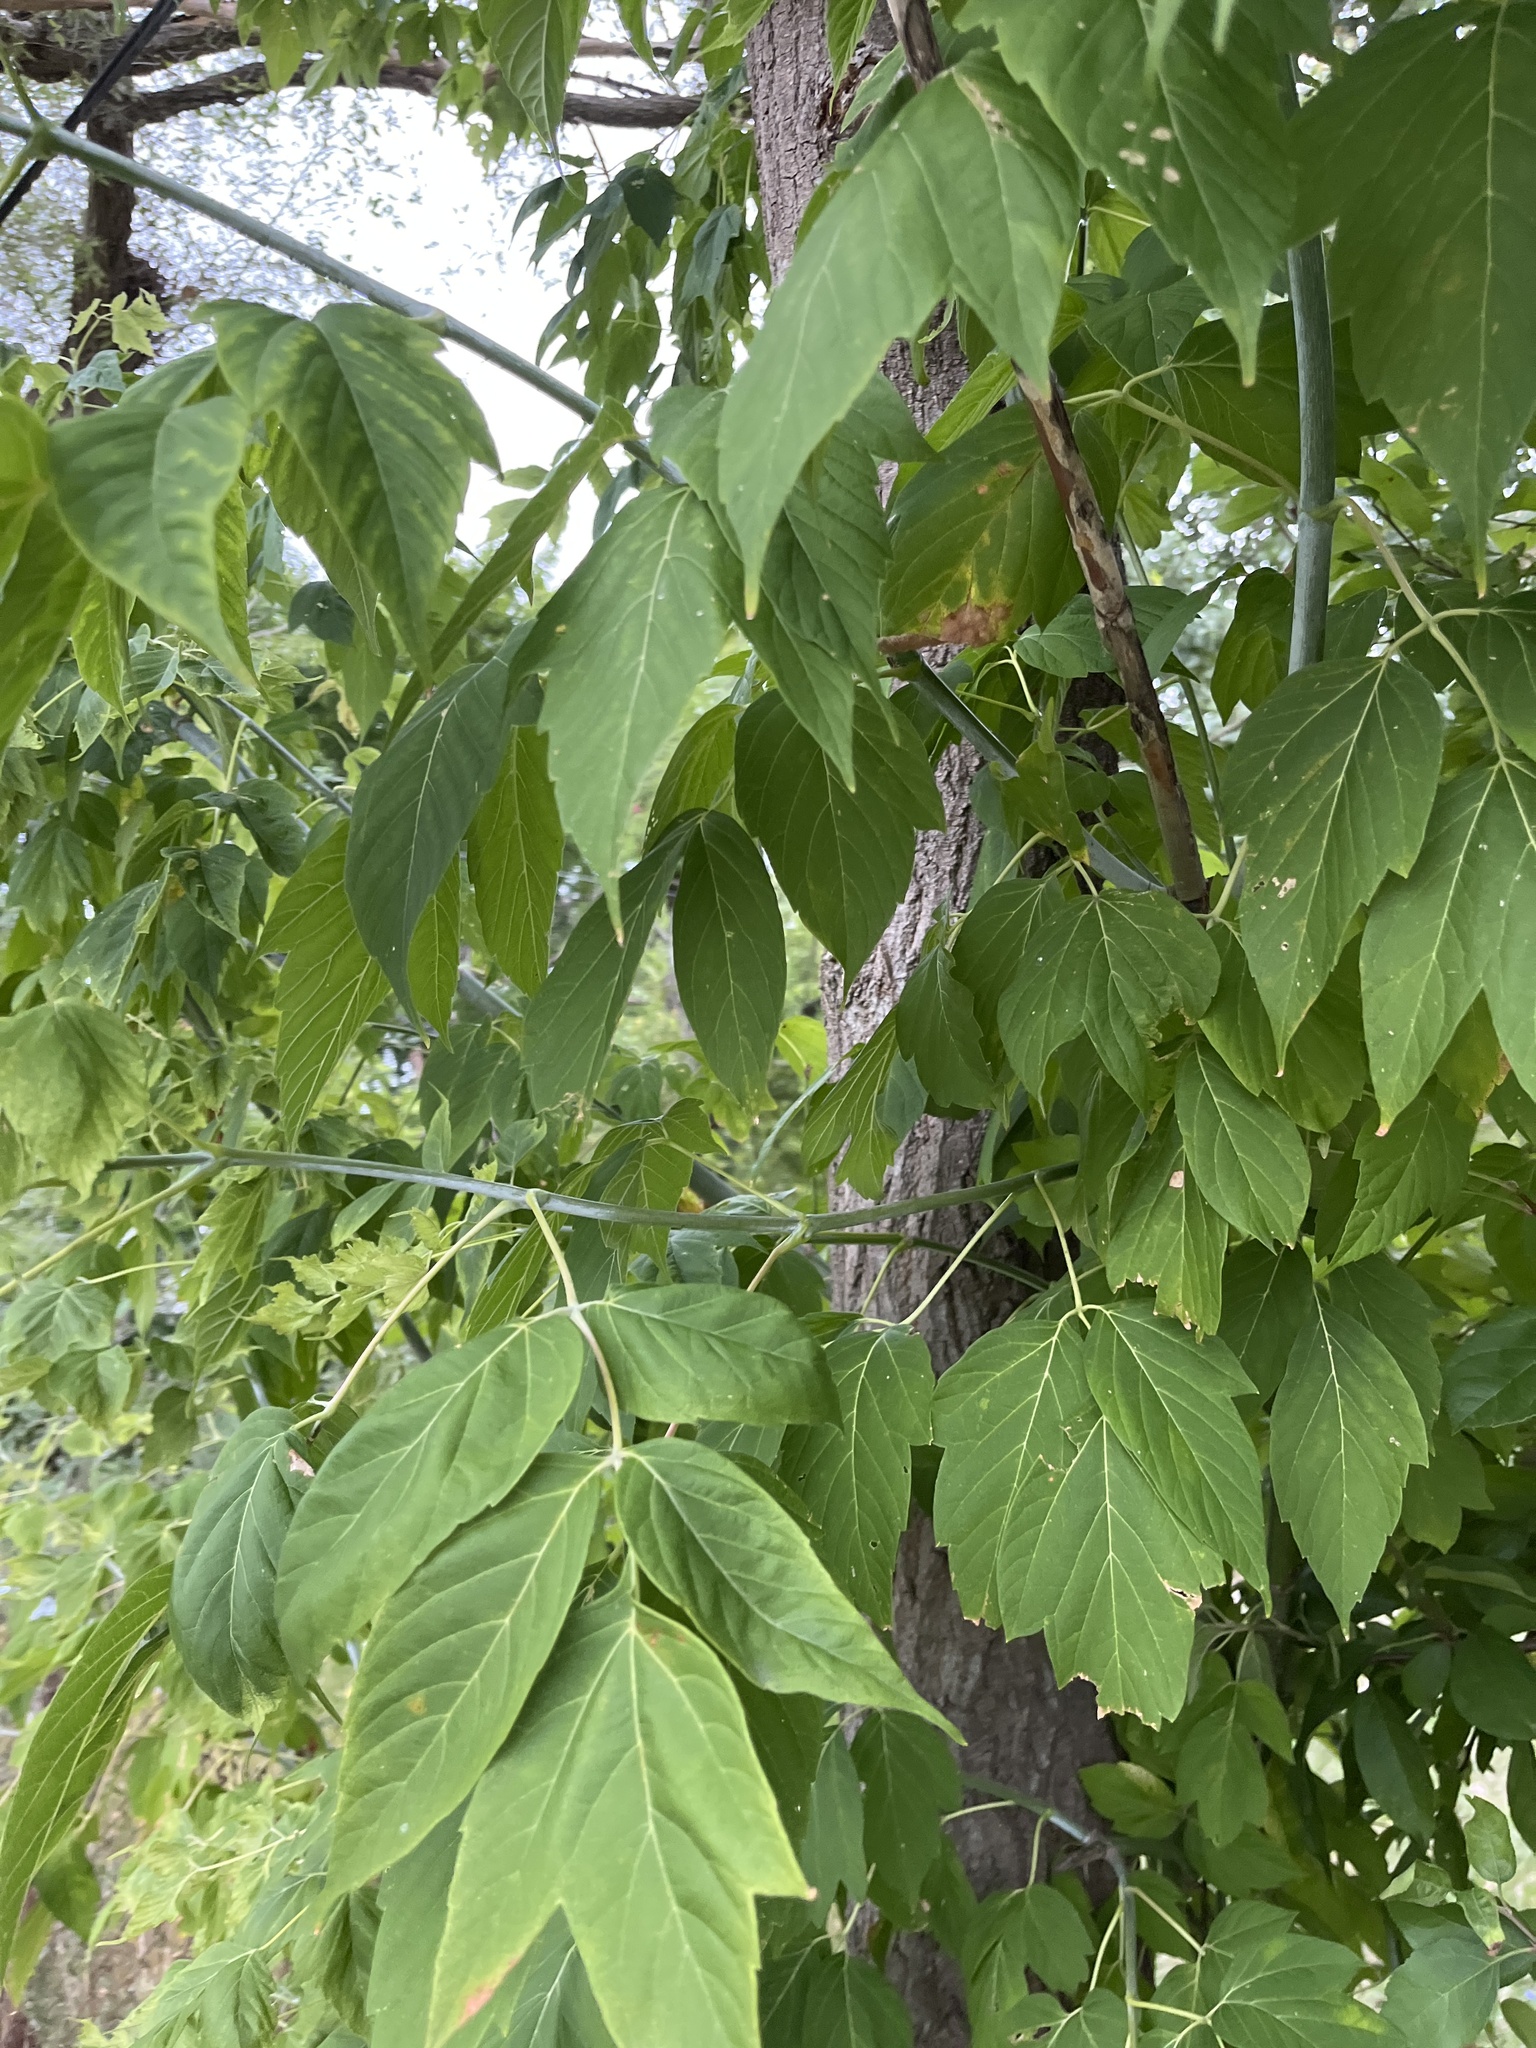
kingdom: Plantae
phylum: Tracheophyta
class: Magnoliopsida
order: Sapindales
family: Sapindaceae
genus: Acer
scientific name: Acer negundo
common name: Ashleaf maple
